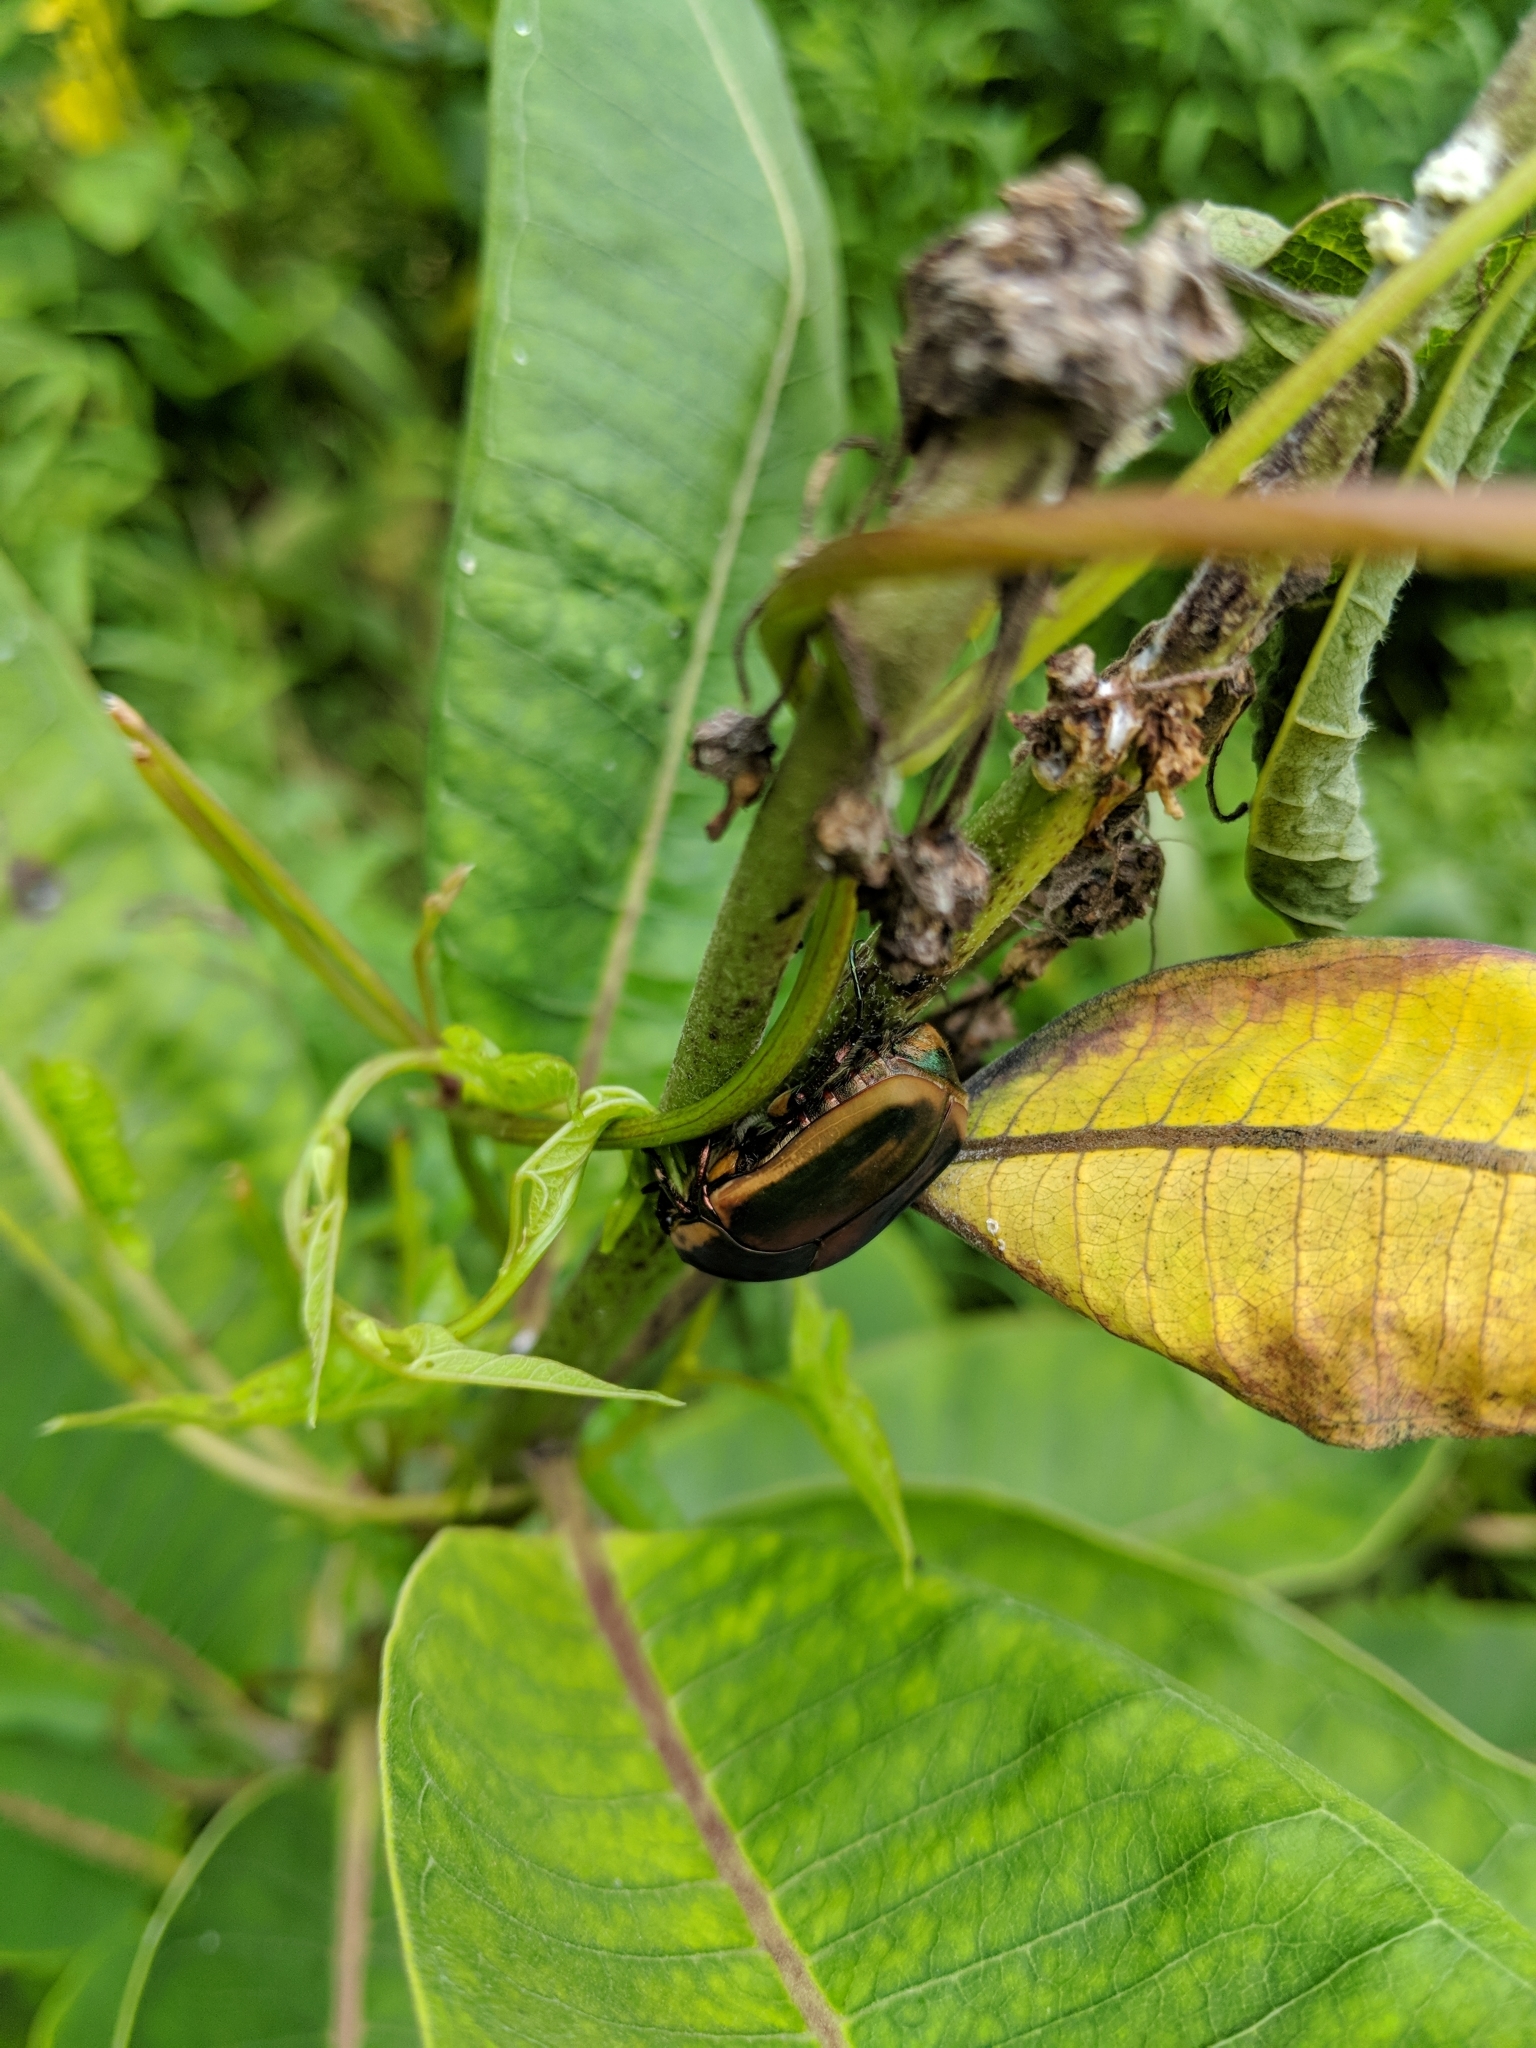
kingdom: Animalia
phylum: Arthropoda
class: Insecta
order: Coleoptera
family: Scarabaeidae
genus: Cotinis
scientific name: Cotinis nitida
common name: Common green june beetle
